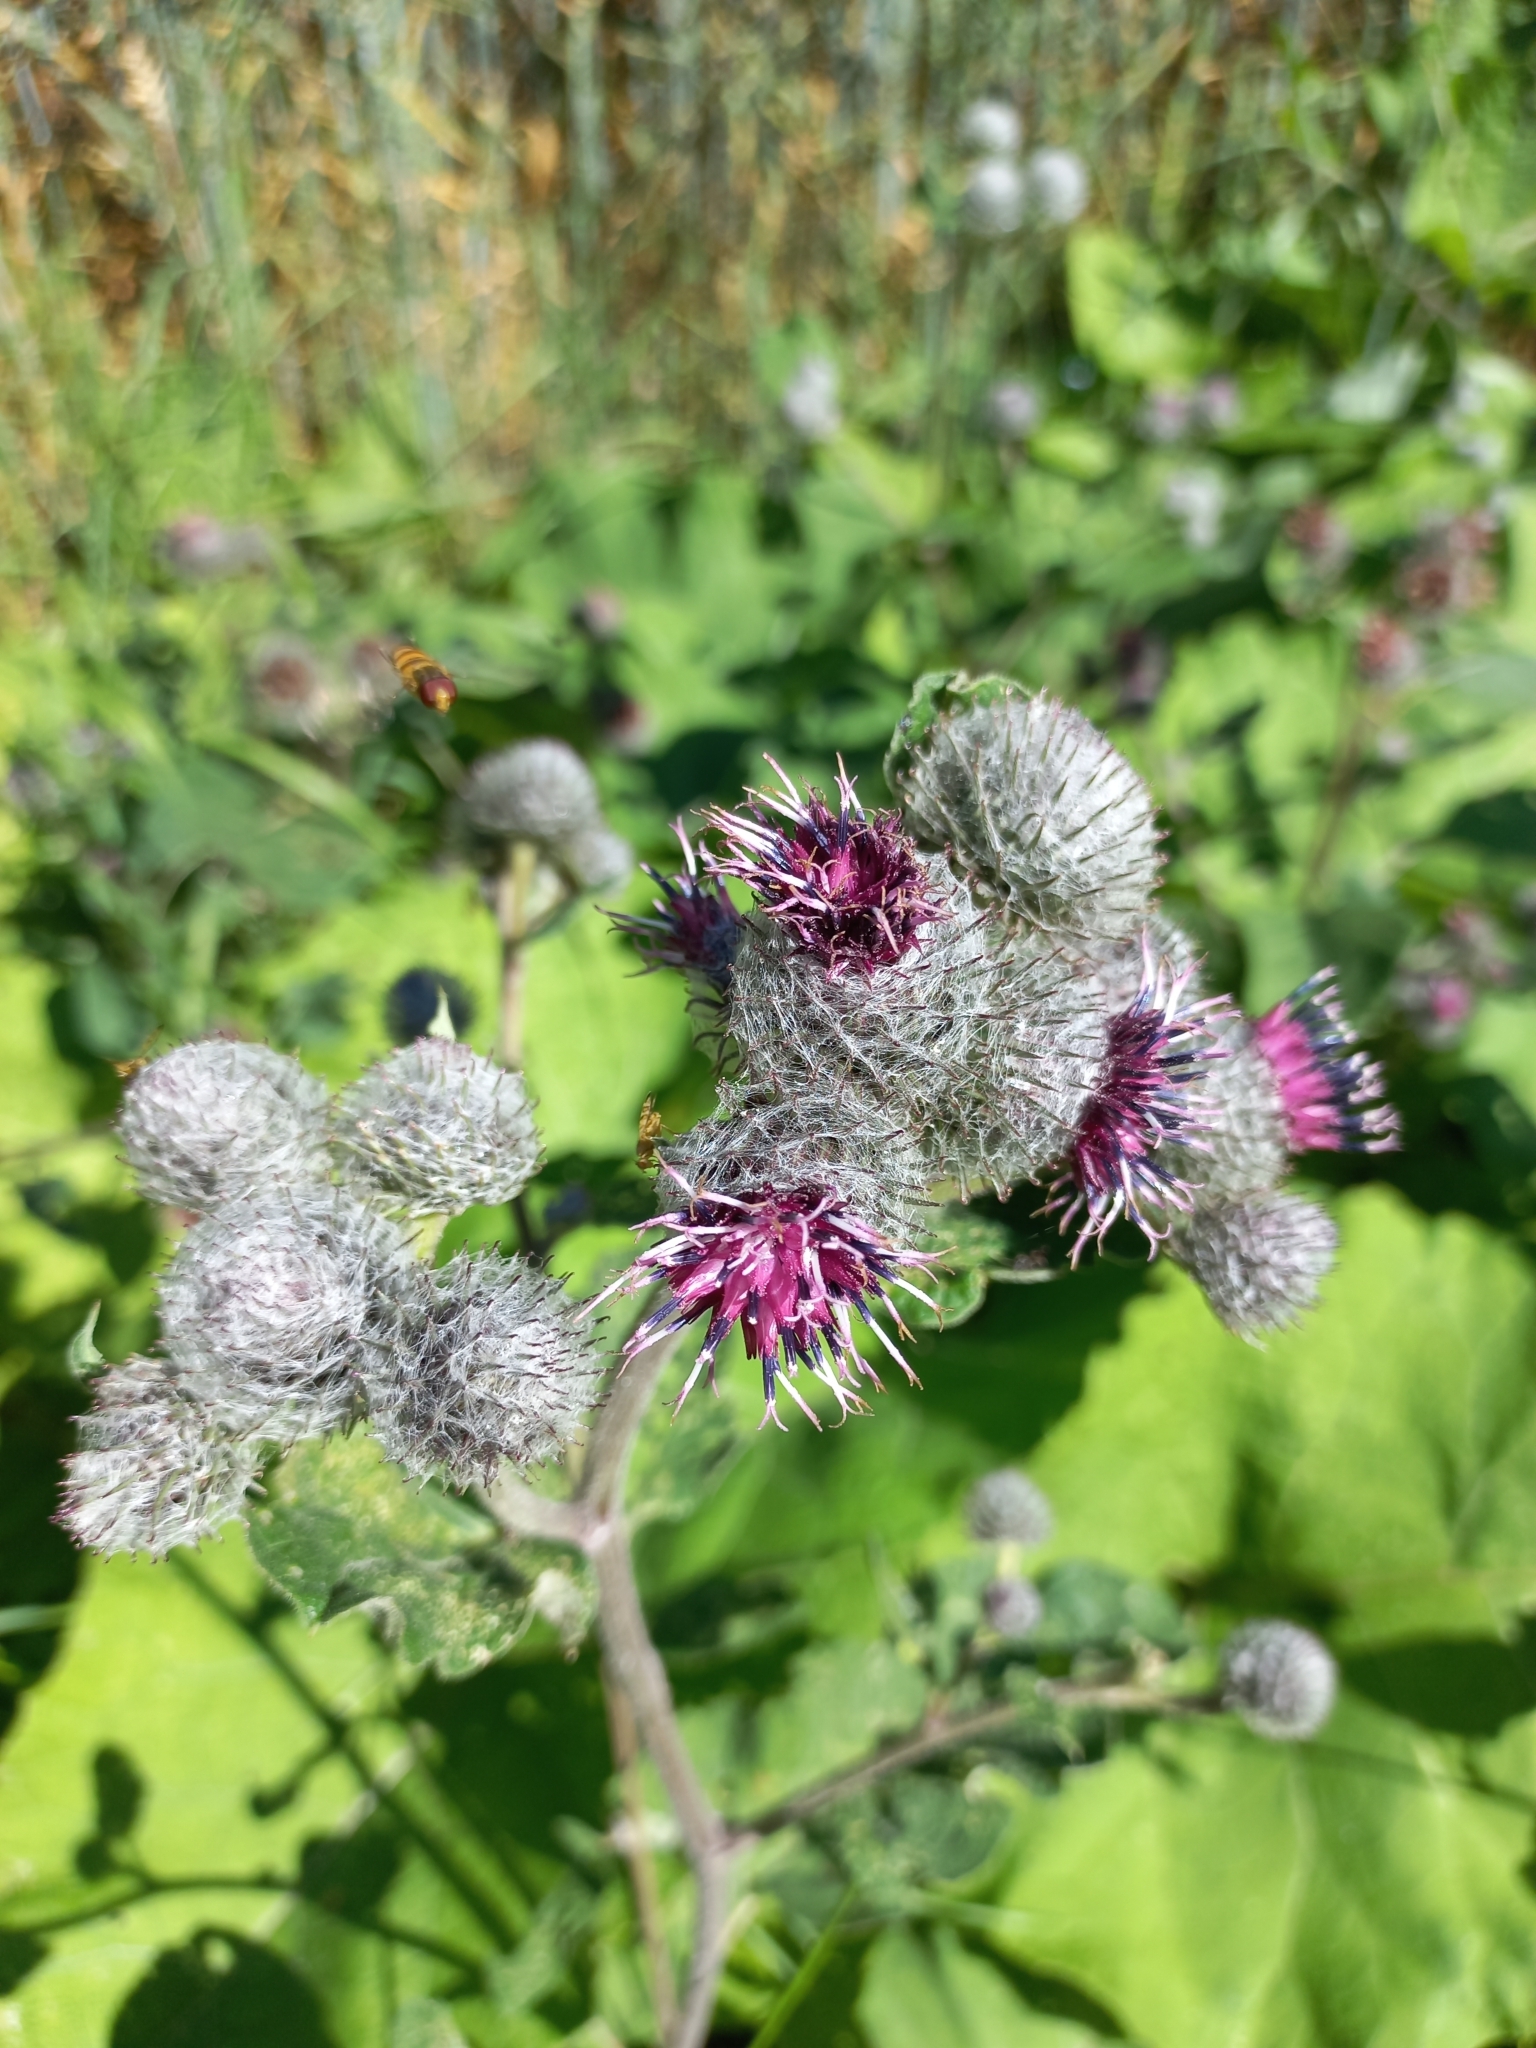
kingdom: Plantae
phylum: Tracheophyta
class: Magnoliopsida
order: Asterales
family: Asteraceae
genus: Arctium
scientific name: Arctium tomentosum
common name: Woolly burdock
